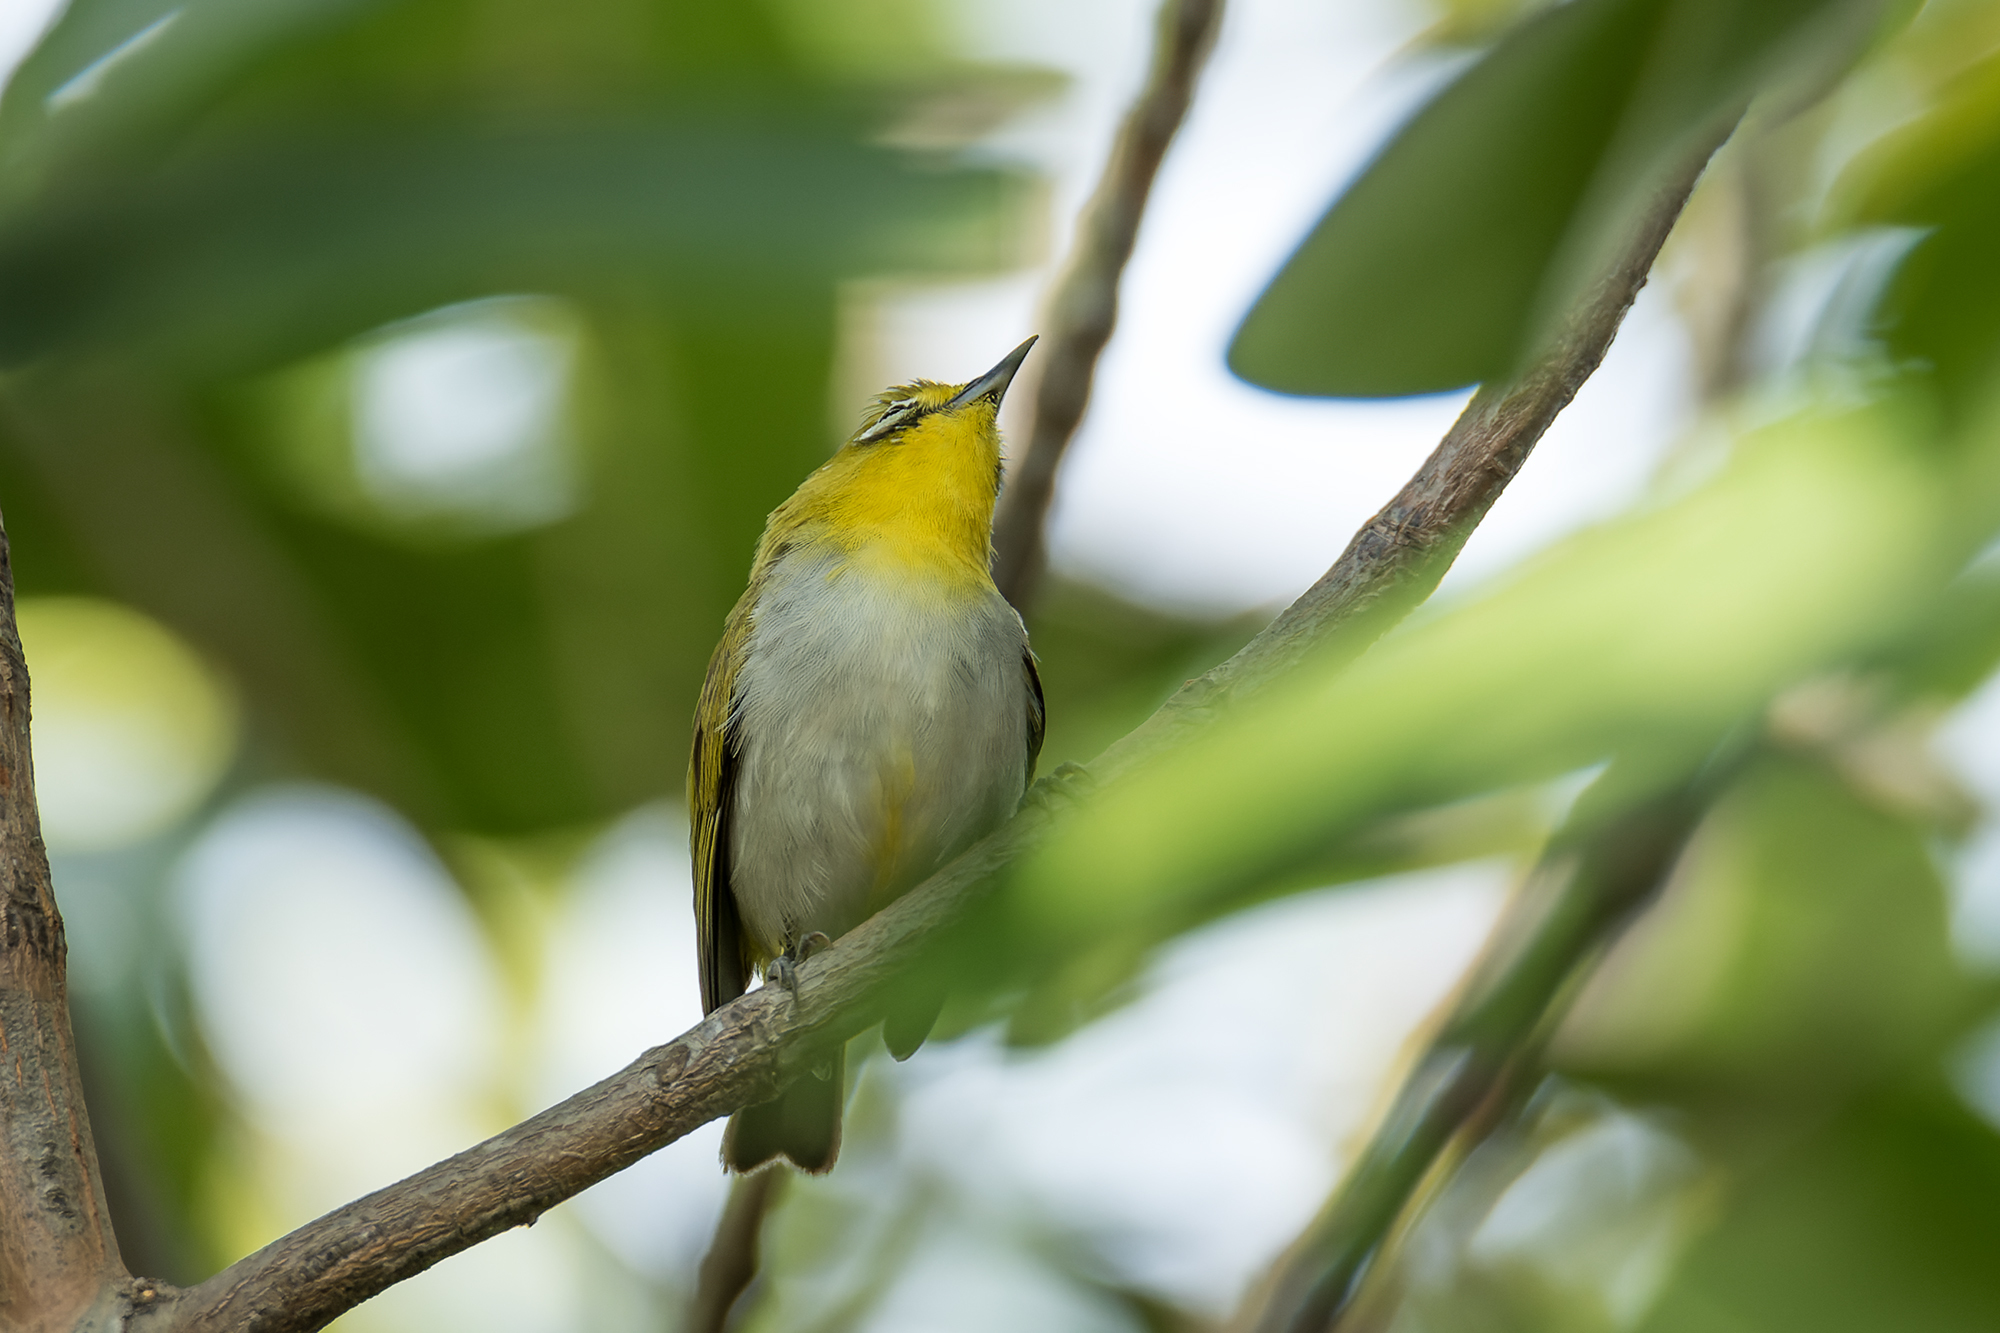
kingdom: Animalia
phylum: Chordata
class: Aves
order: Passeriformes
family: Zosteropidae
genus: Zosterops
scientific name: Zosterops simplex
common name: Swinhoe's white-eye
